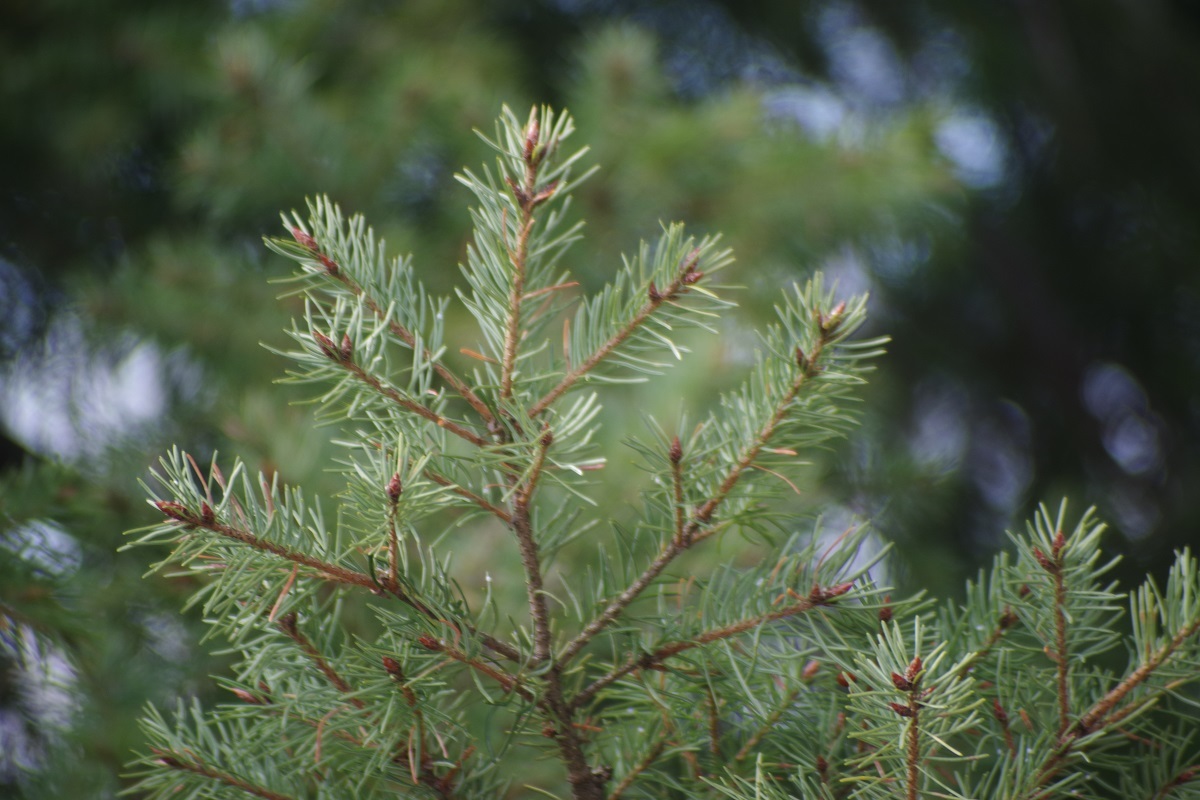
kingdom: Plantae
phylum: Tracheophyta
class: Pinopsida
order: Pinales
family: Pinaceae
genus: Pseudotsuga
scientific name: Pseudotsuga menziesii
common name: Douglas fir
